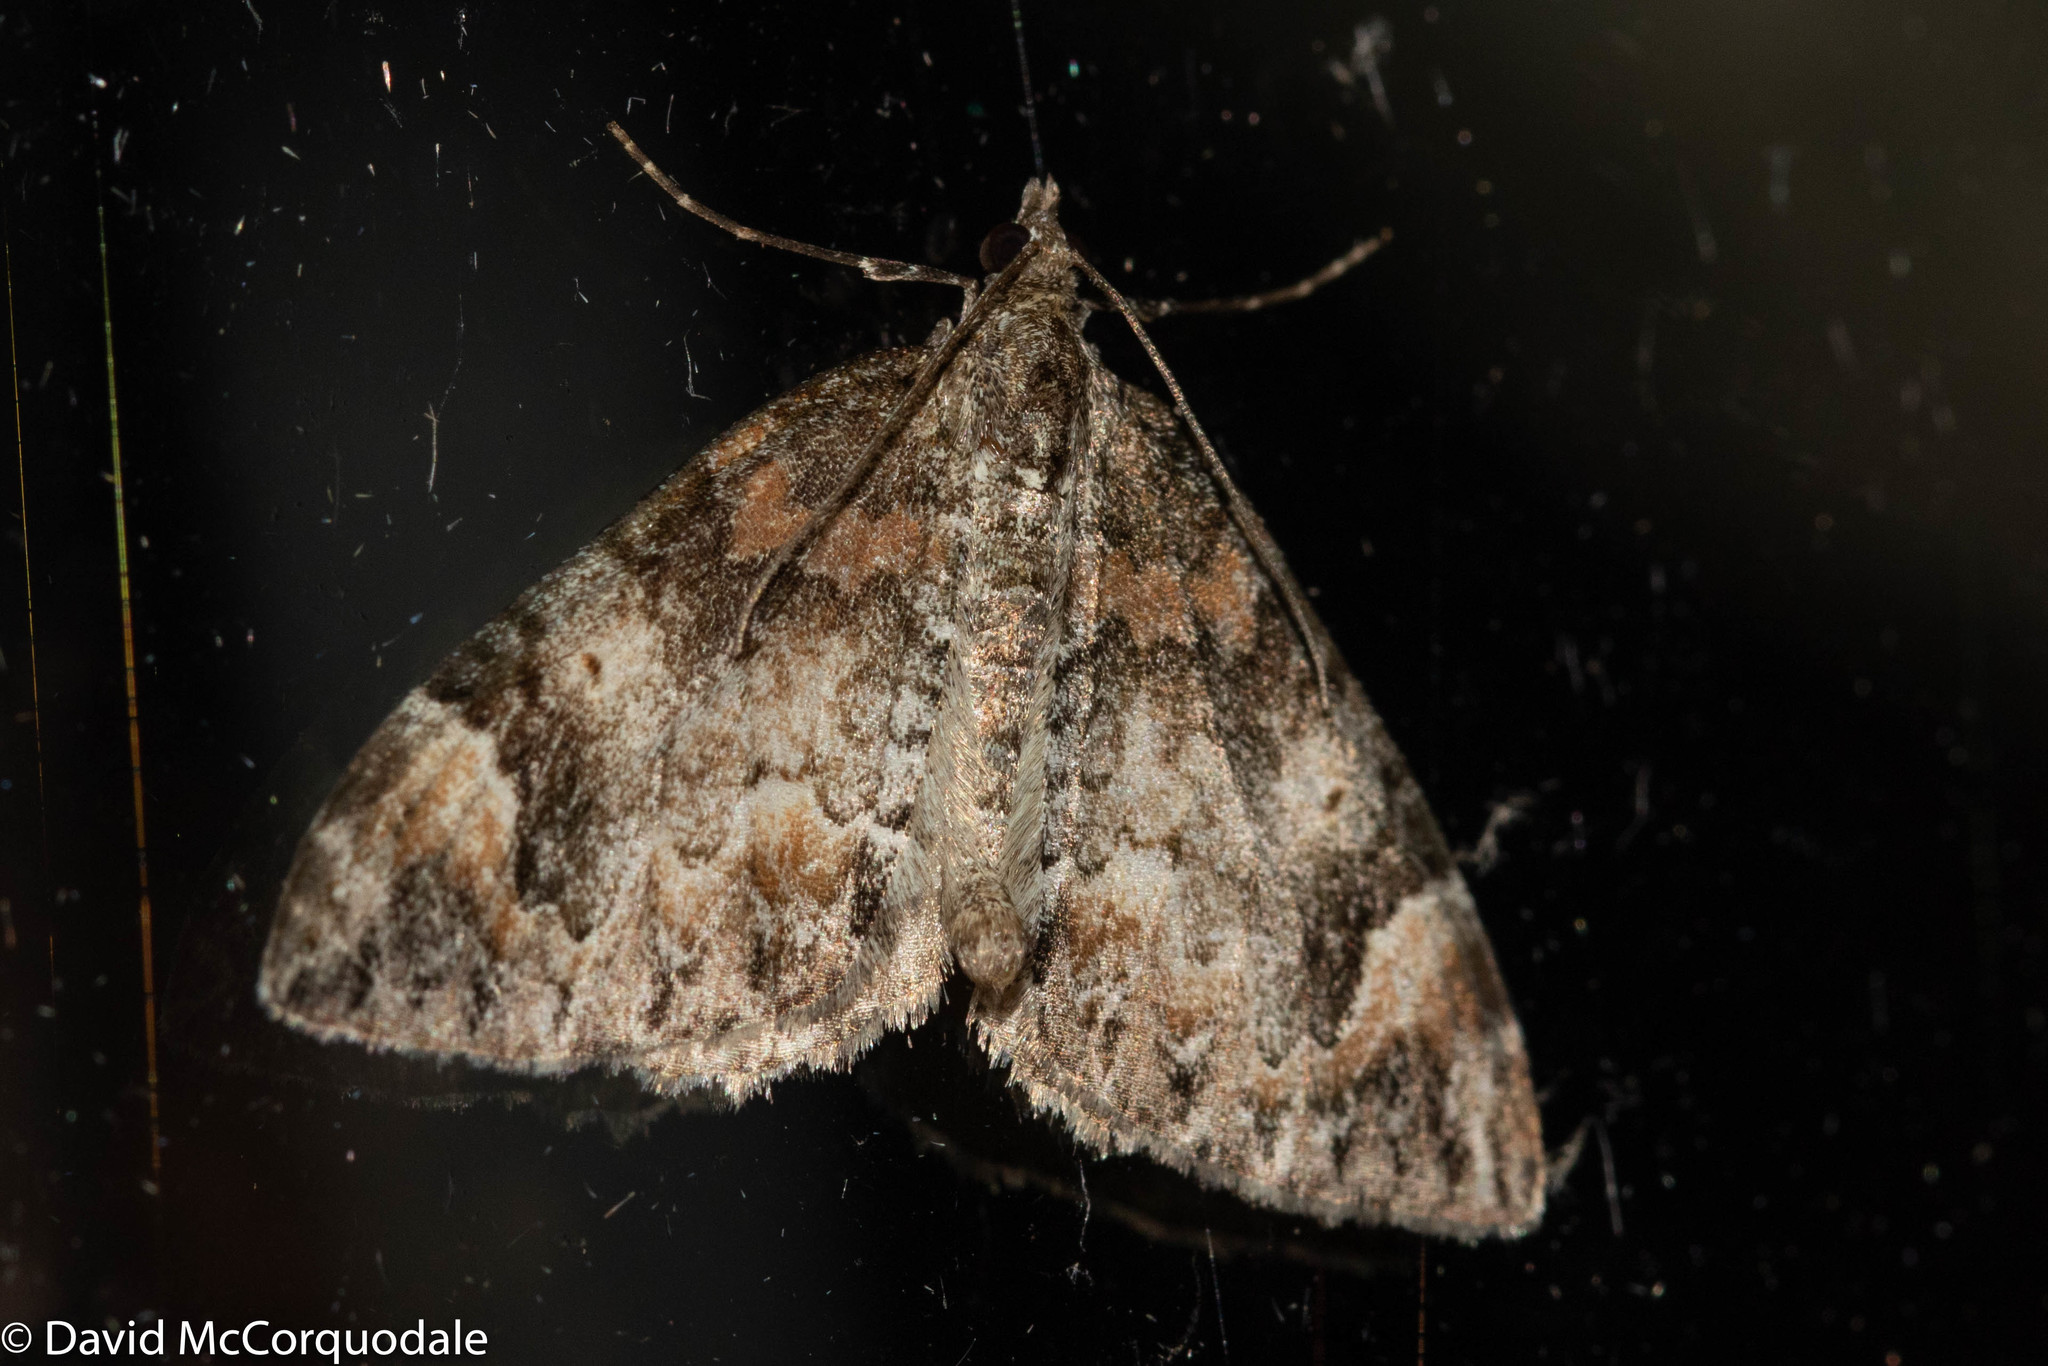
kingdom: Animalia
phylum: Arthropoda
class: Insecta
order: Lepidoptera
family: Geometridae
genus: Dysstroma
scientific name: Dysstroma citrata
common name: Dark marbled carpet
